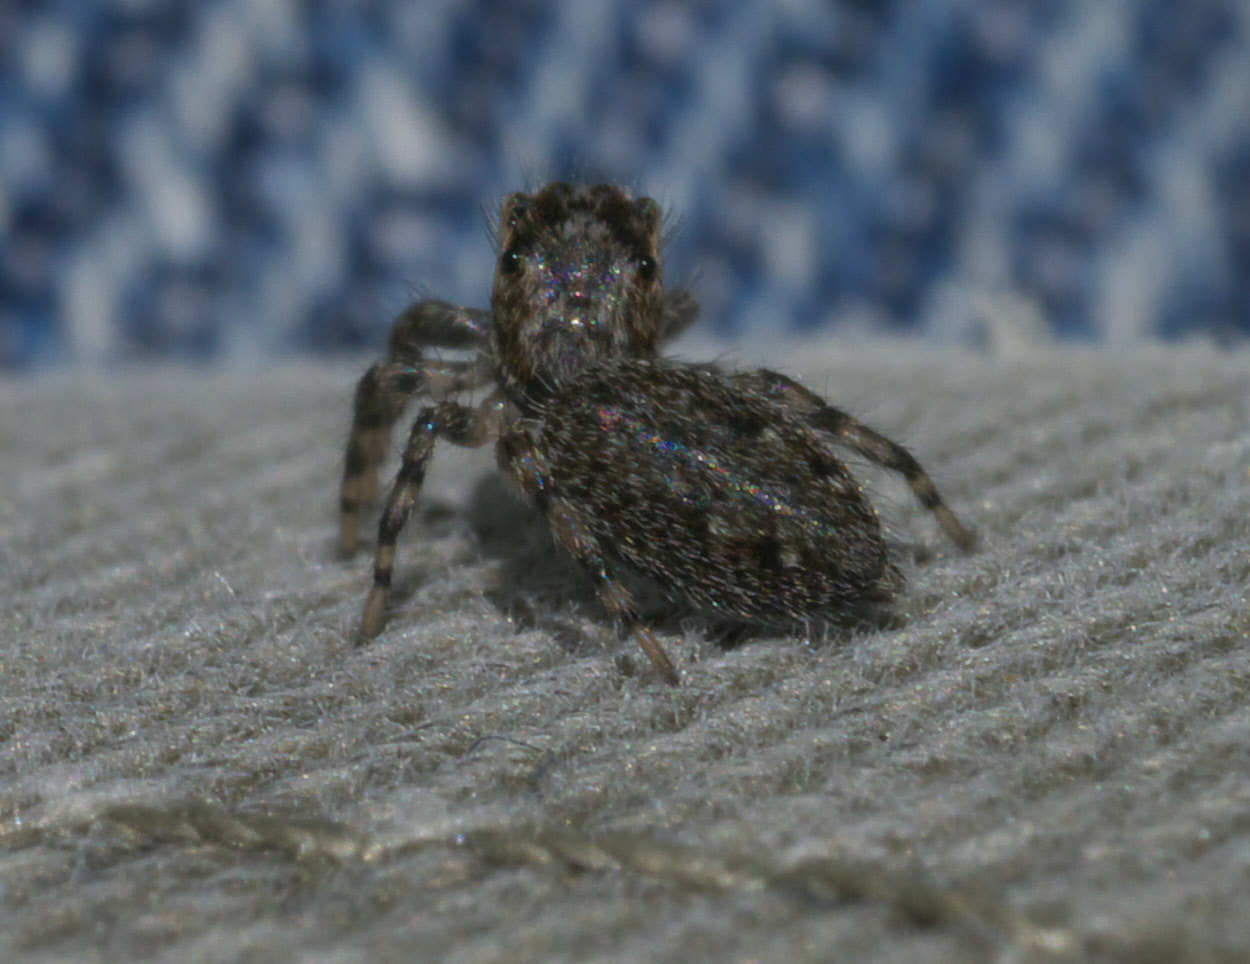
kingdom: Animalia
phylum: Arthropoda
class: Arachnida
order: Araneae
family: Salticidae
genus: Platycryptus
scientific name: Platycryptus undatus
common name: Tan jumping spider
